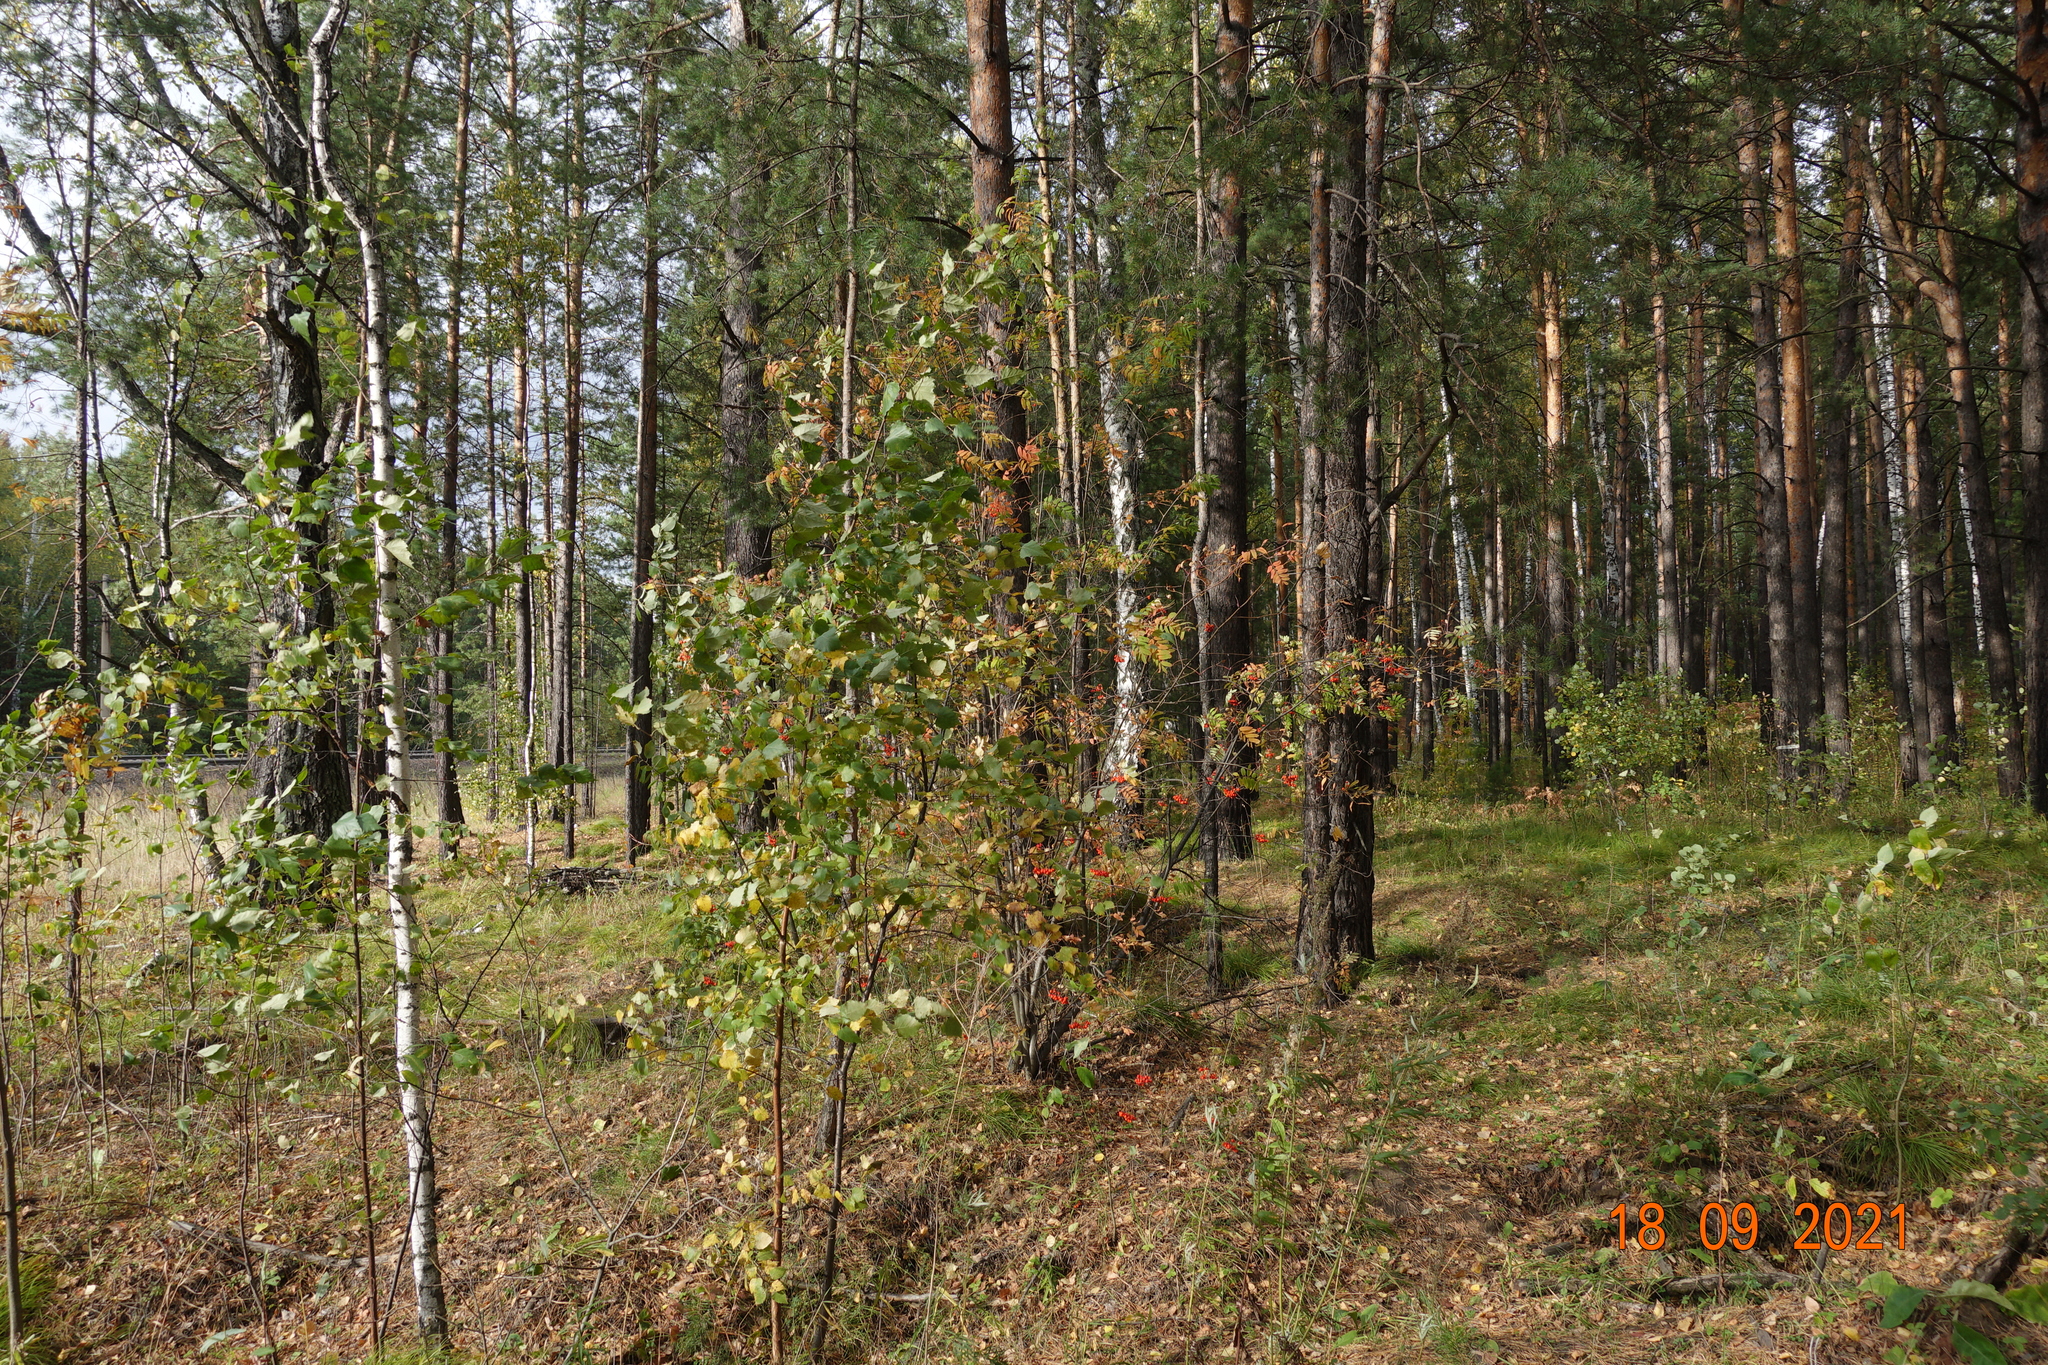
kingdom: Plantae
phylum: Tracheophyta
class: Pinopsida
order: Pinales
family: Pinaceae
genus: Pinus
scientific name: Pinus sylvestris
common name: Scots pine
